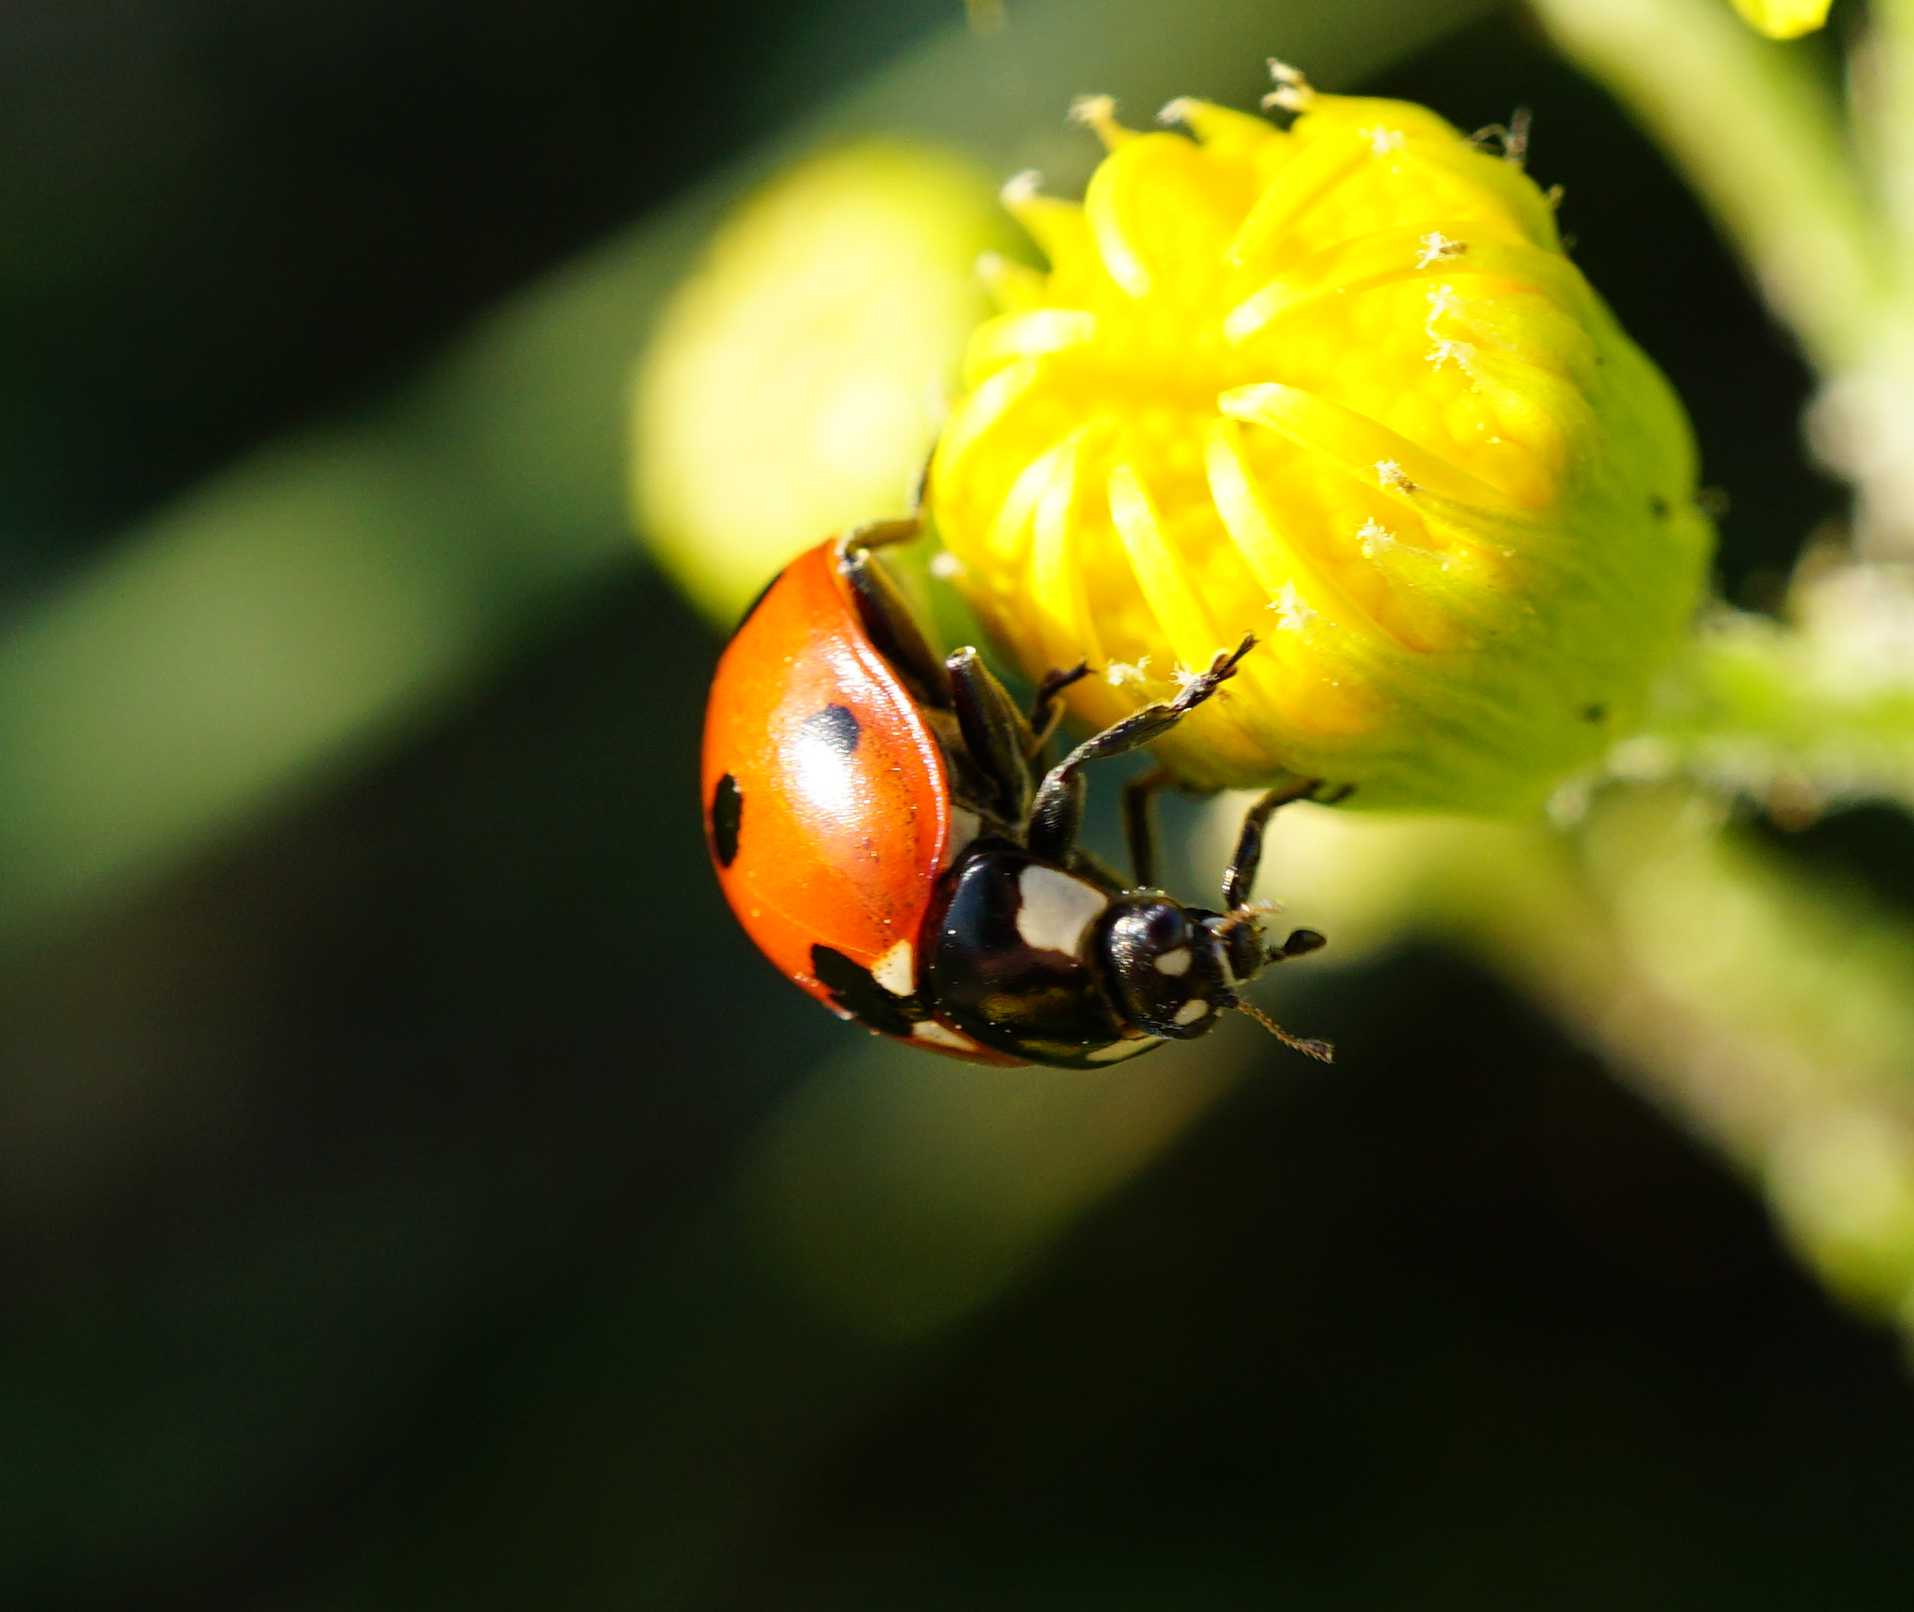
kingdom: Animalia
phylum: Arthropoda
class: Insecta
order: Coleoptera
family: Coccinellidae
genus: Coccinella
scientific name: Coccinella septempunctata
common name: Sevenspotted lady beetle
